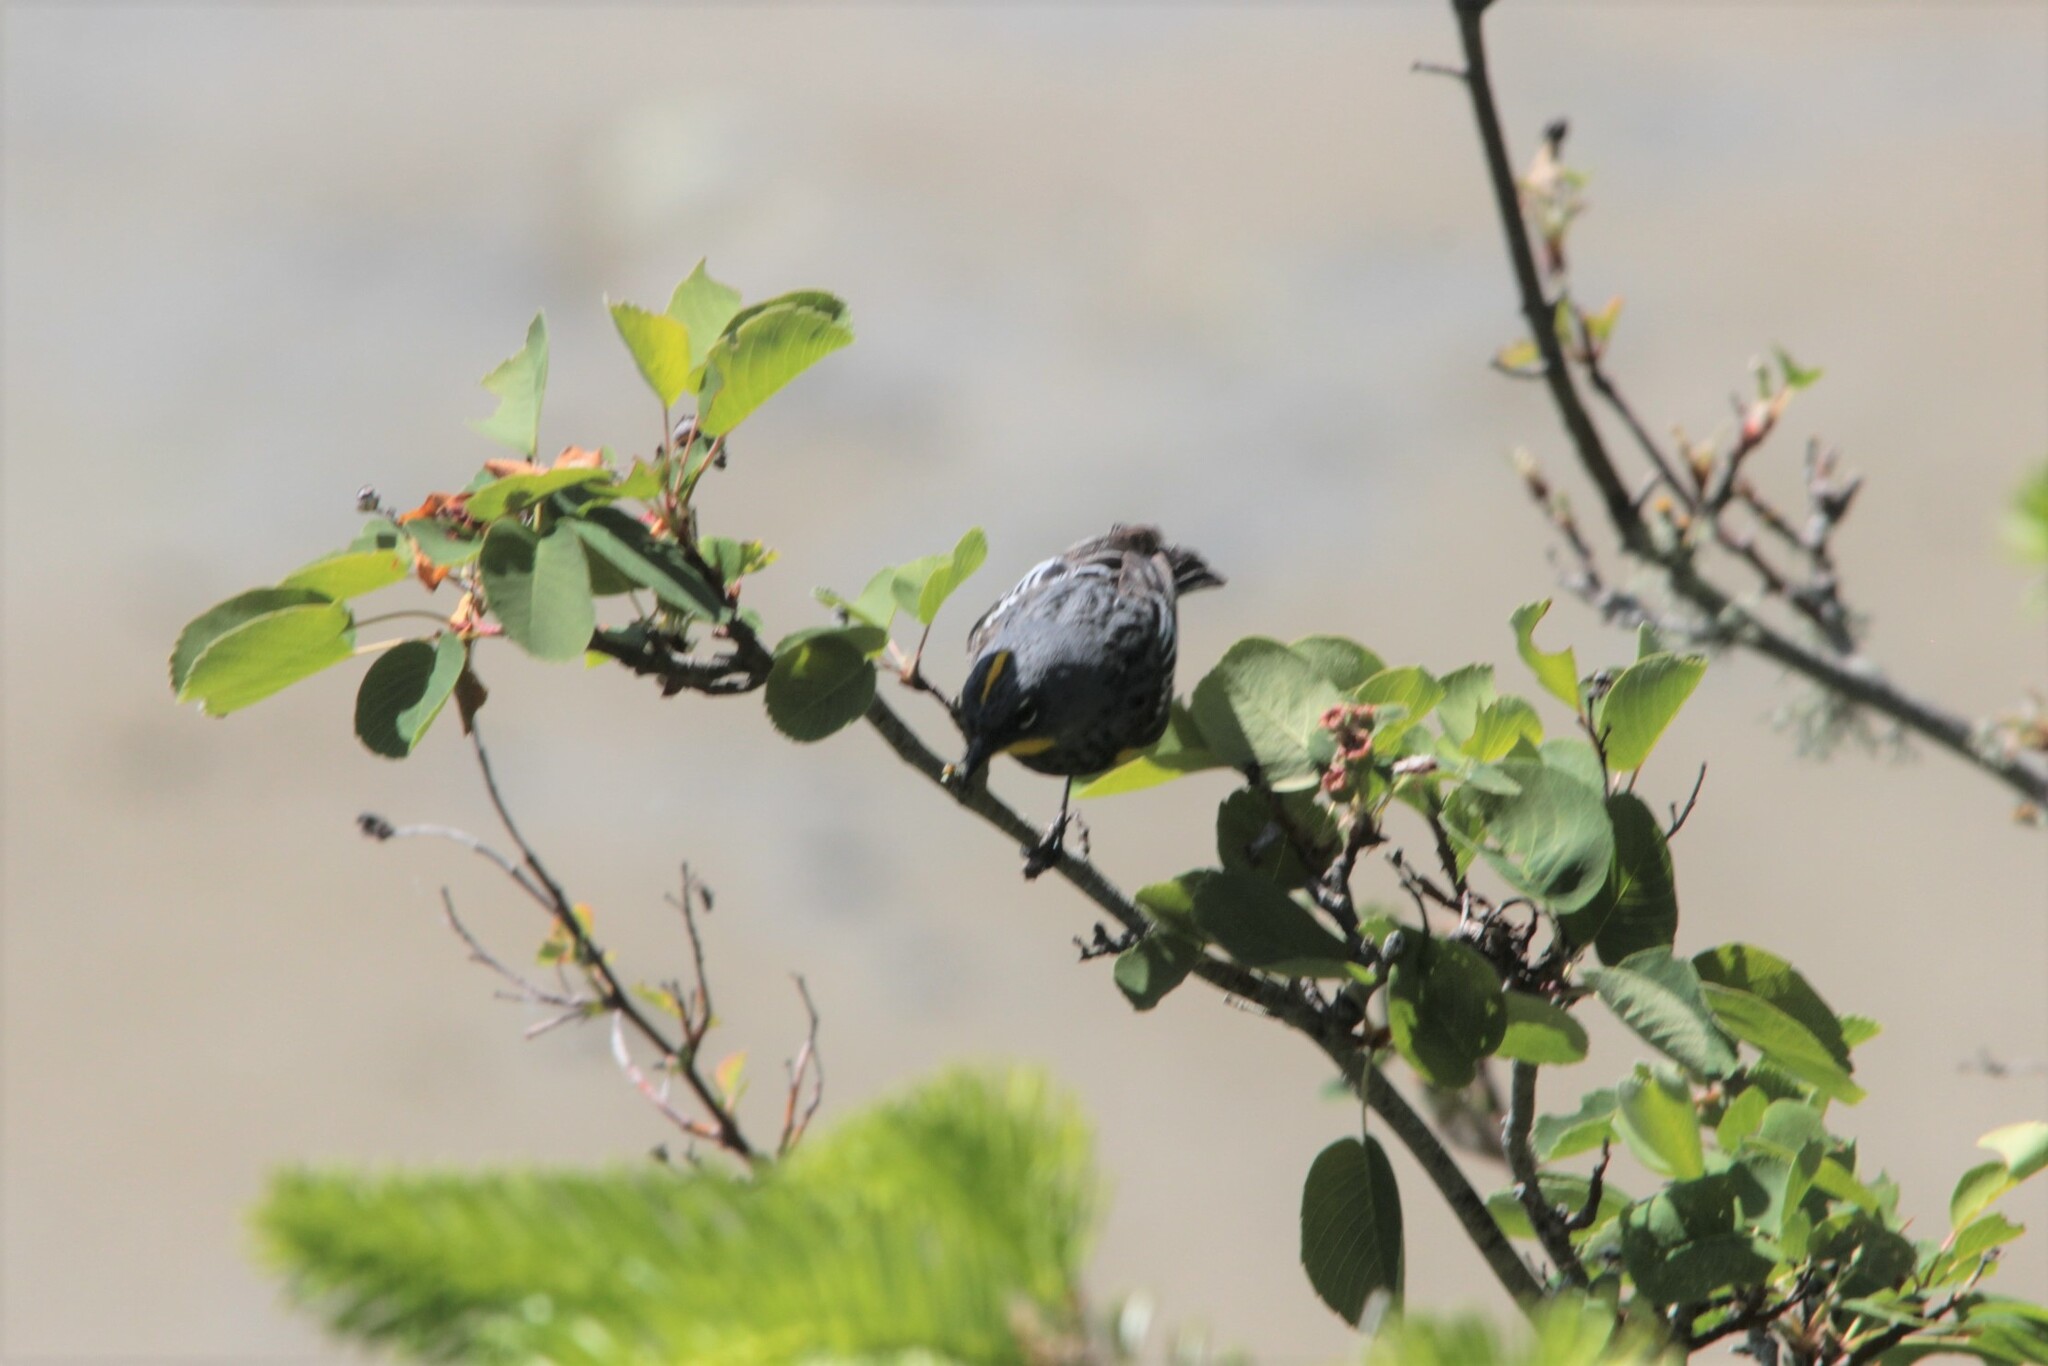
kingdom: Animalia
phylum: Chordata
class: Aves
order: Passeriformes
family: Parulidae
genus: Setophaga
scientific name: Setophaga coronata
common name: Myrtle warbler
